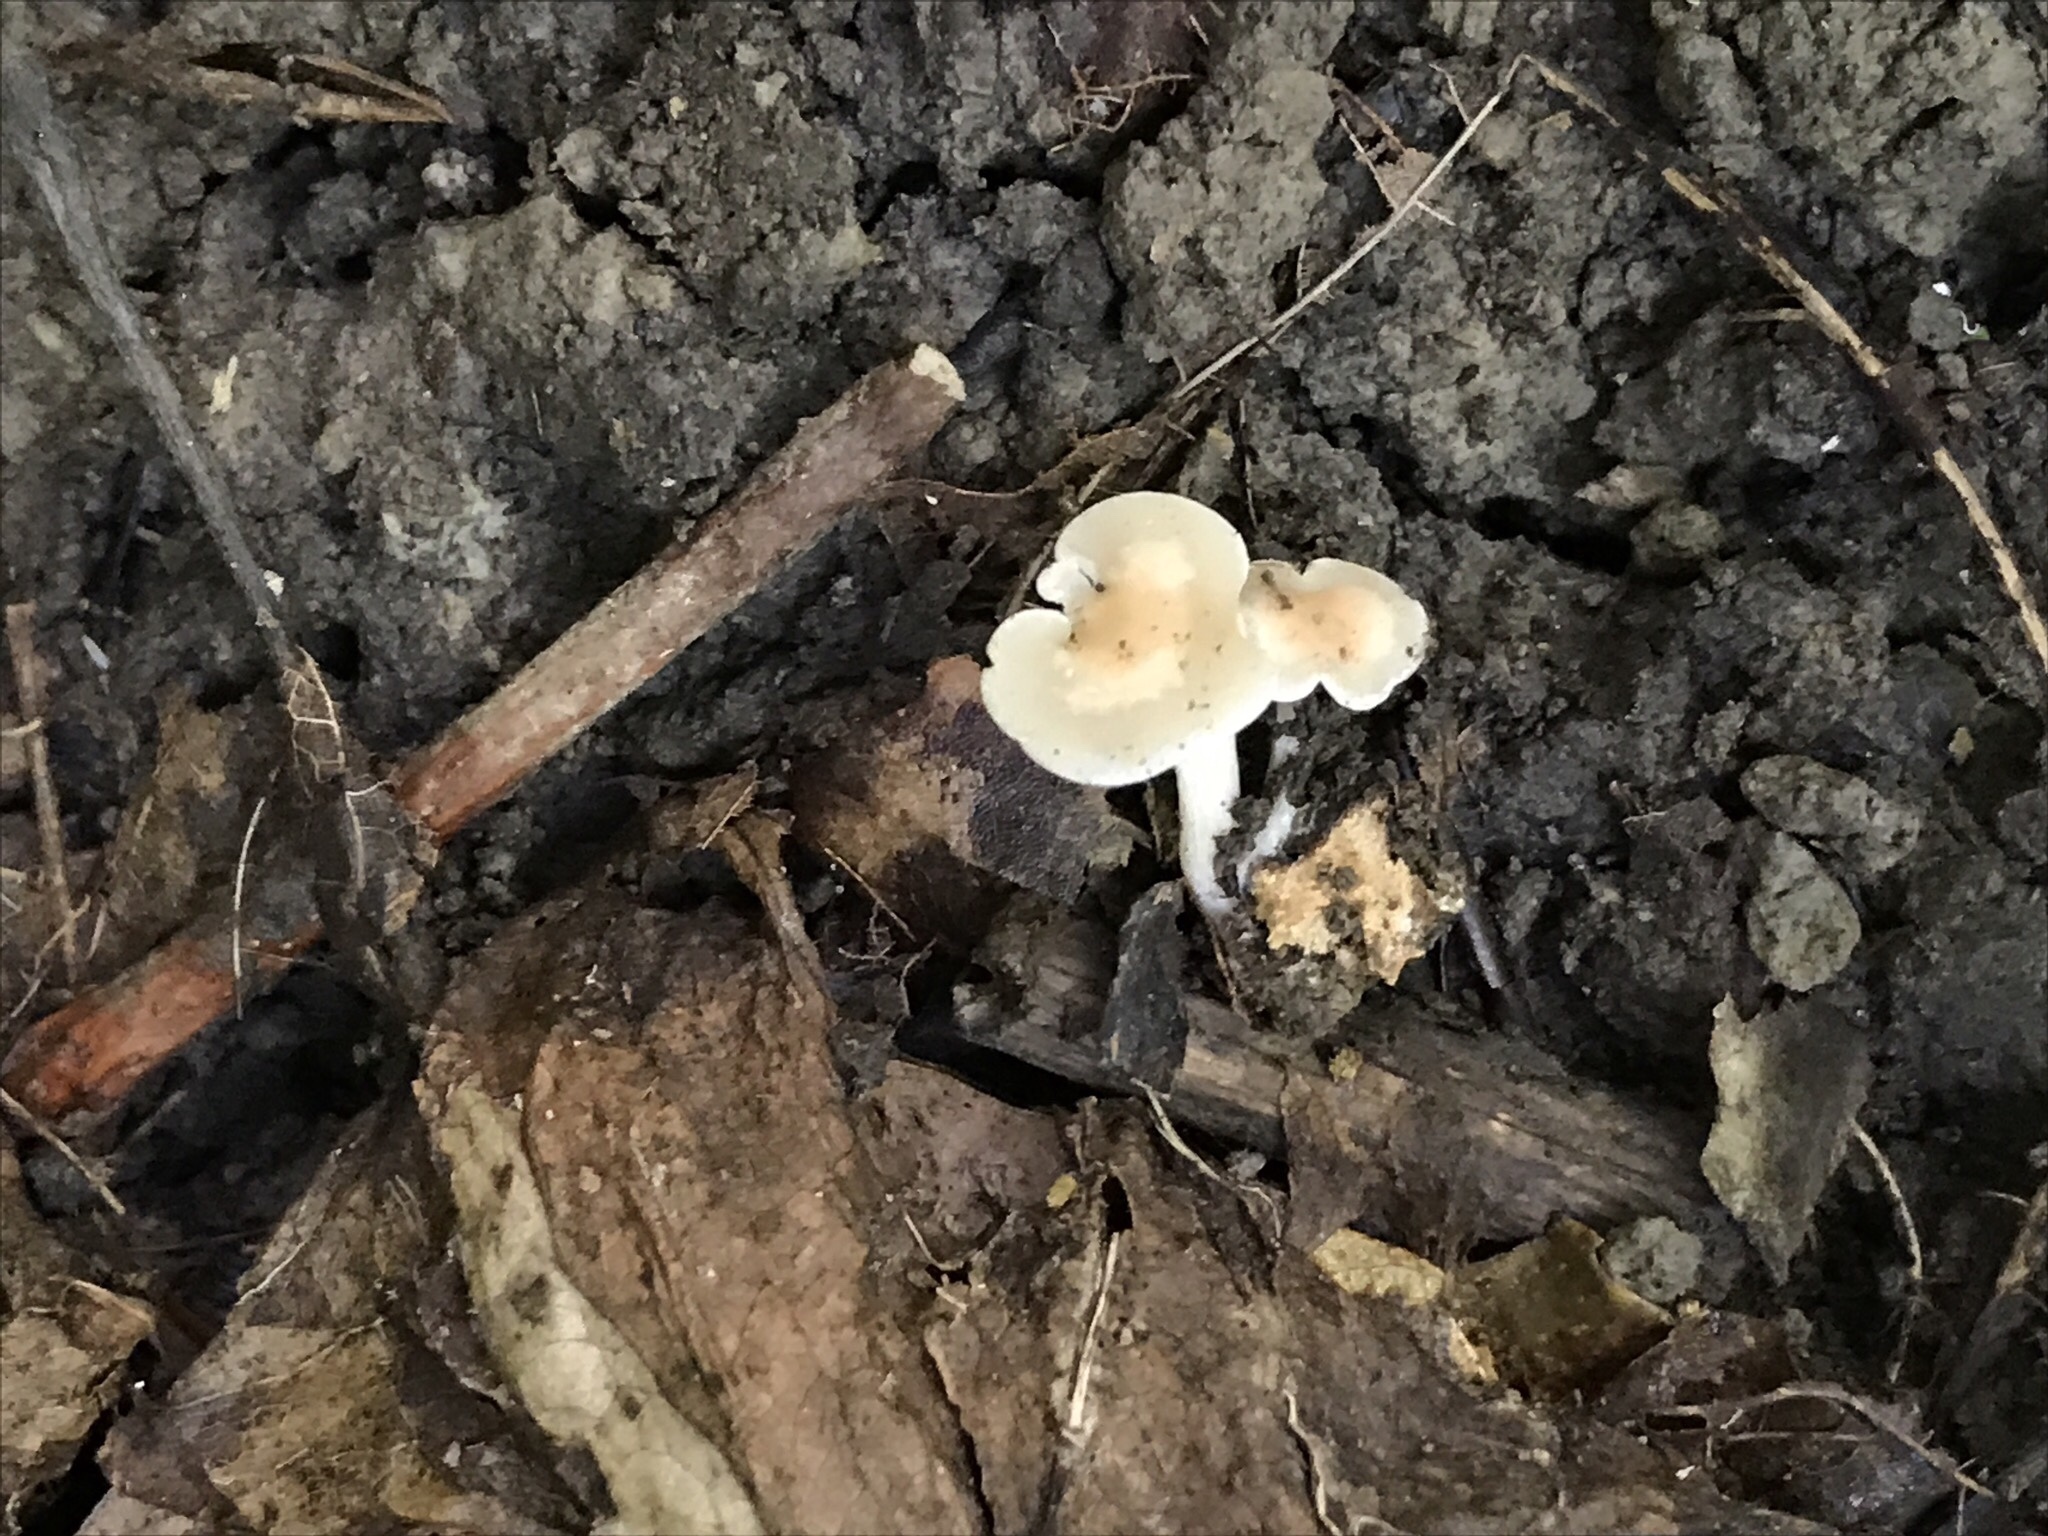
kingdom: Fungi
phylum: Basidiomycota
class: Agaricomycetes
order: Agaricales
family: Tricholomataceae
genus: Clitocybe
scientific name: Clitocybe americana
